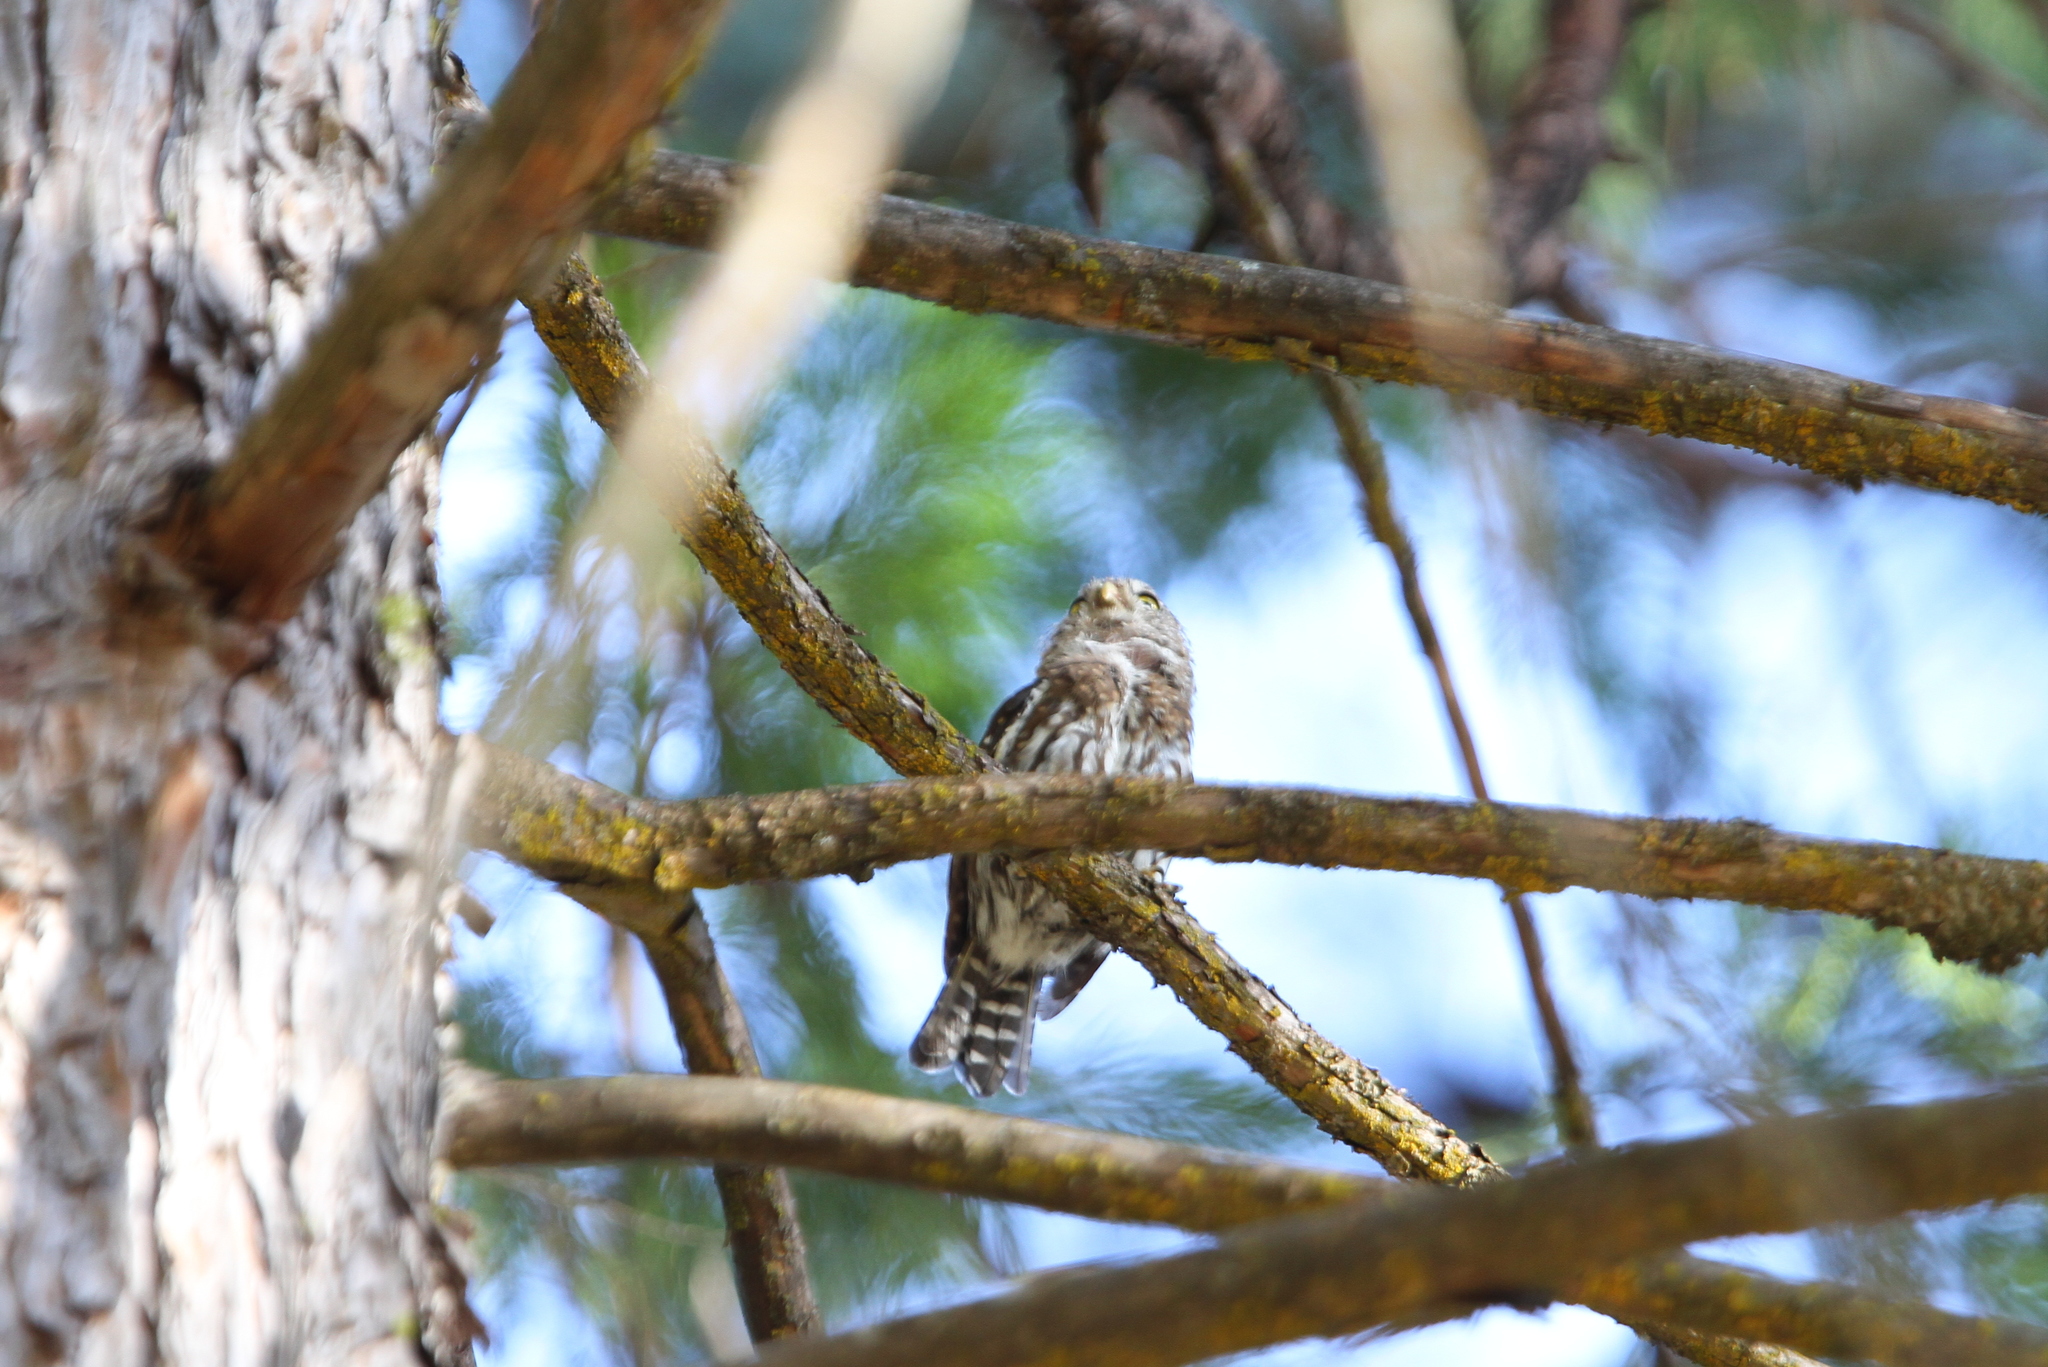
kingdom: Animalia
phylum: Chordata
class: Aves
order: Strigiformes
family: Strigidae
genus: Glaucidium
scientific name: Glaucidium gnoma
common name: Northern pygmy-owl
